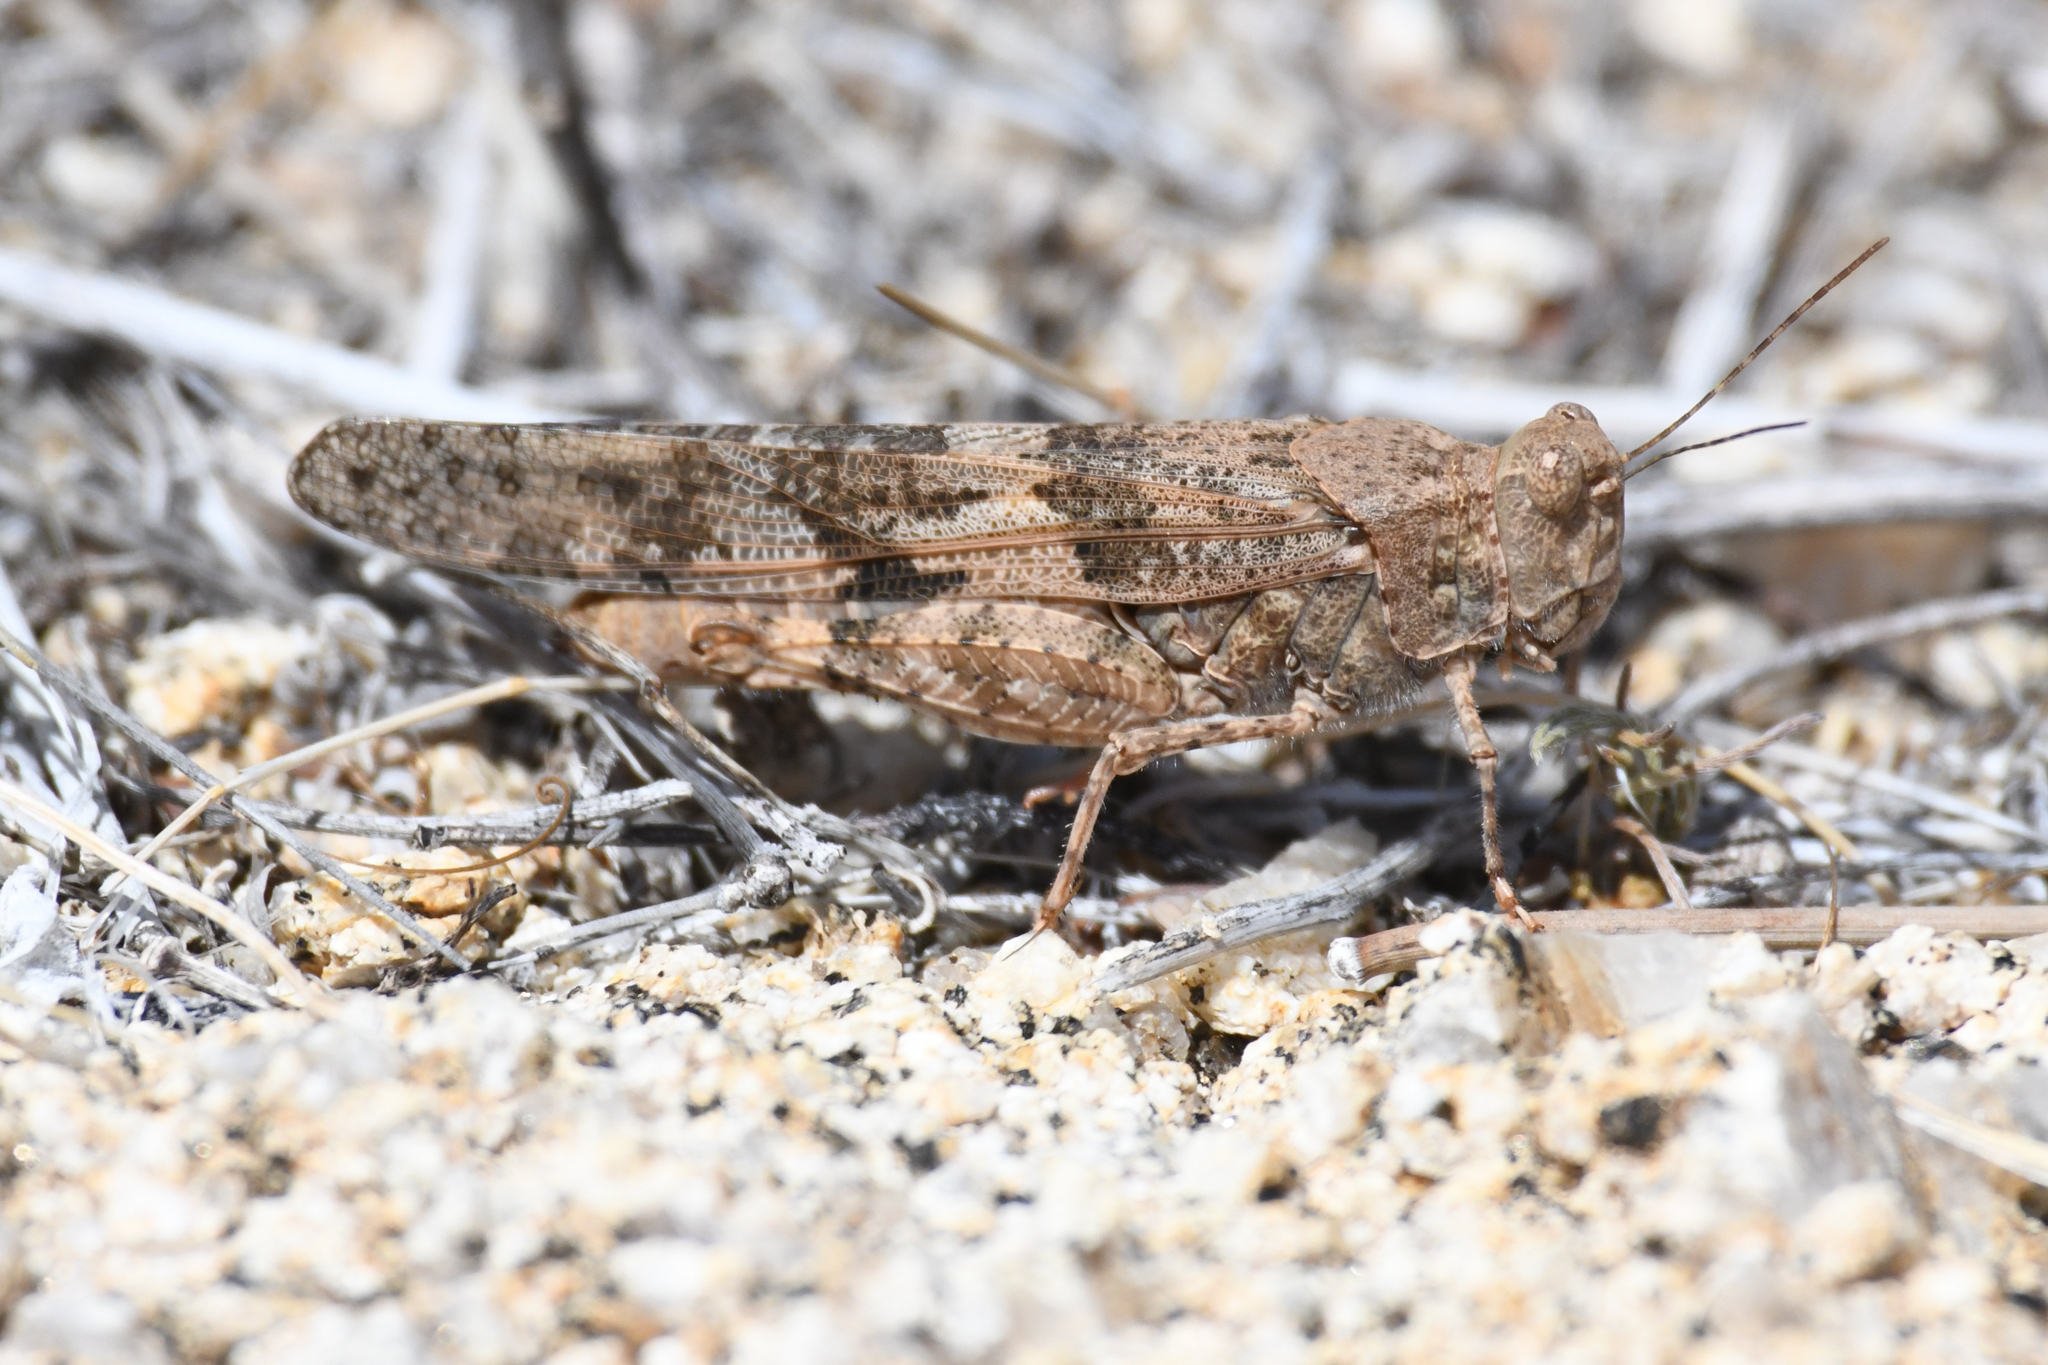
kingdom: Animalia
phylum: Arthropoda
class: Insecta
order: Orthoptera
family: Acrididae
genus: Trimerotropis
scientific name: Trimerotropis pallidipennis
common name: Pallid-winged grasshopper
